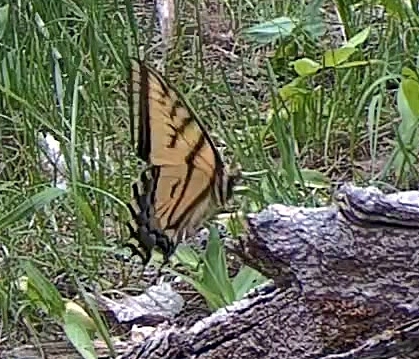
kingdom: Animalia
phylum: Arthropoda
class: Insecta
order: Lepidoptera
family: Papilionidae
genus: Papilio
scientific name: Papilio multicaudata
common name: Two-tailed tiger swallowtail
